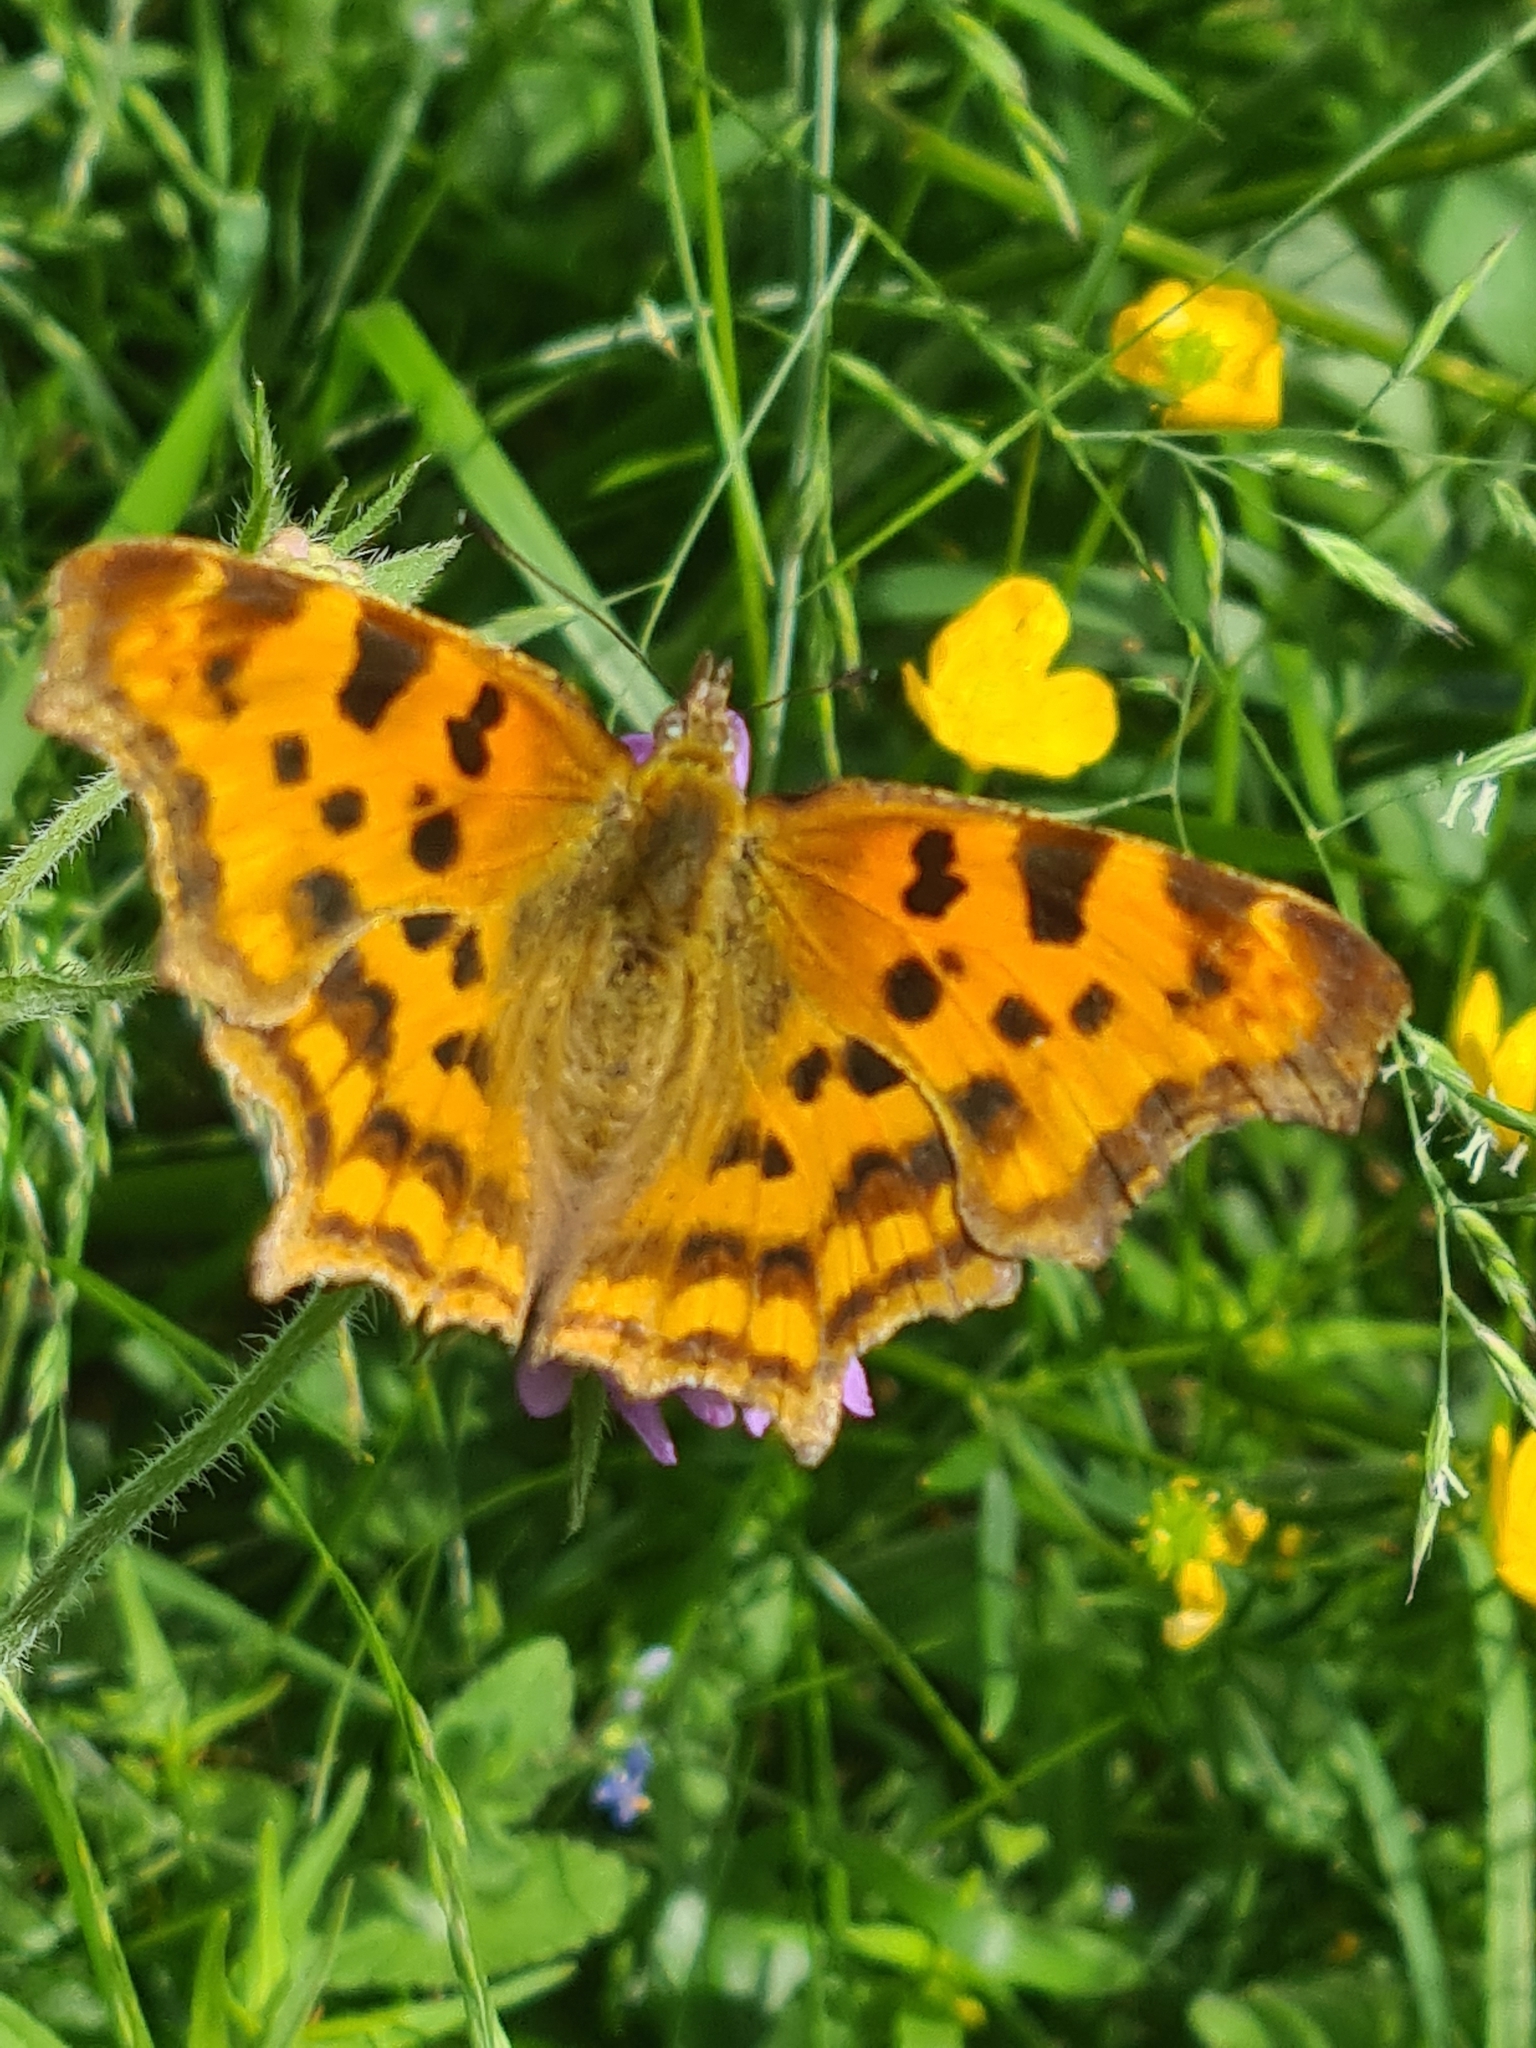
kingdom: Animalia
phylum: Arthropoda
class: Insecta
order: Lepidoptera
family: Nymphalidae
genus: Polygonia
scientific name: Polygonia c-album
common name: Comma
